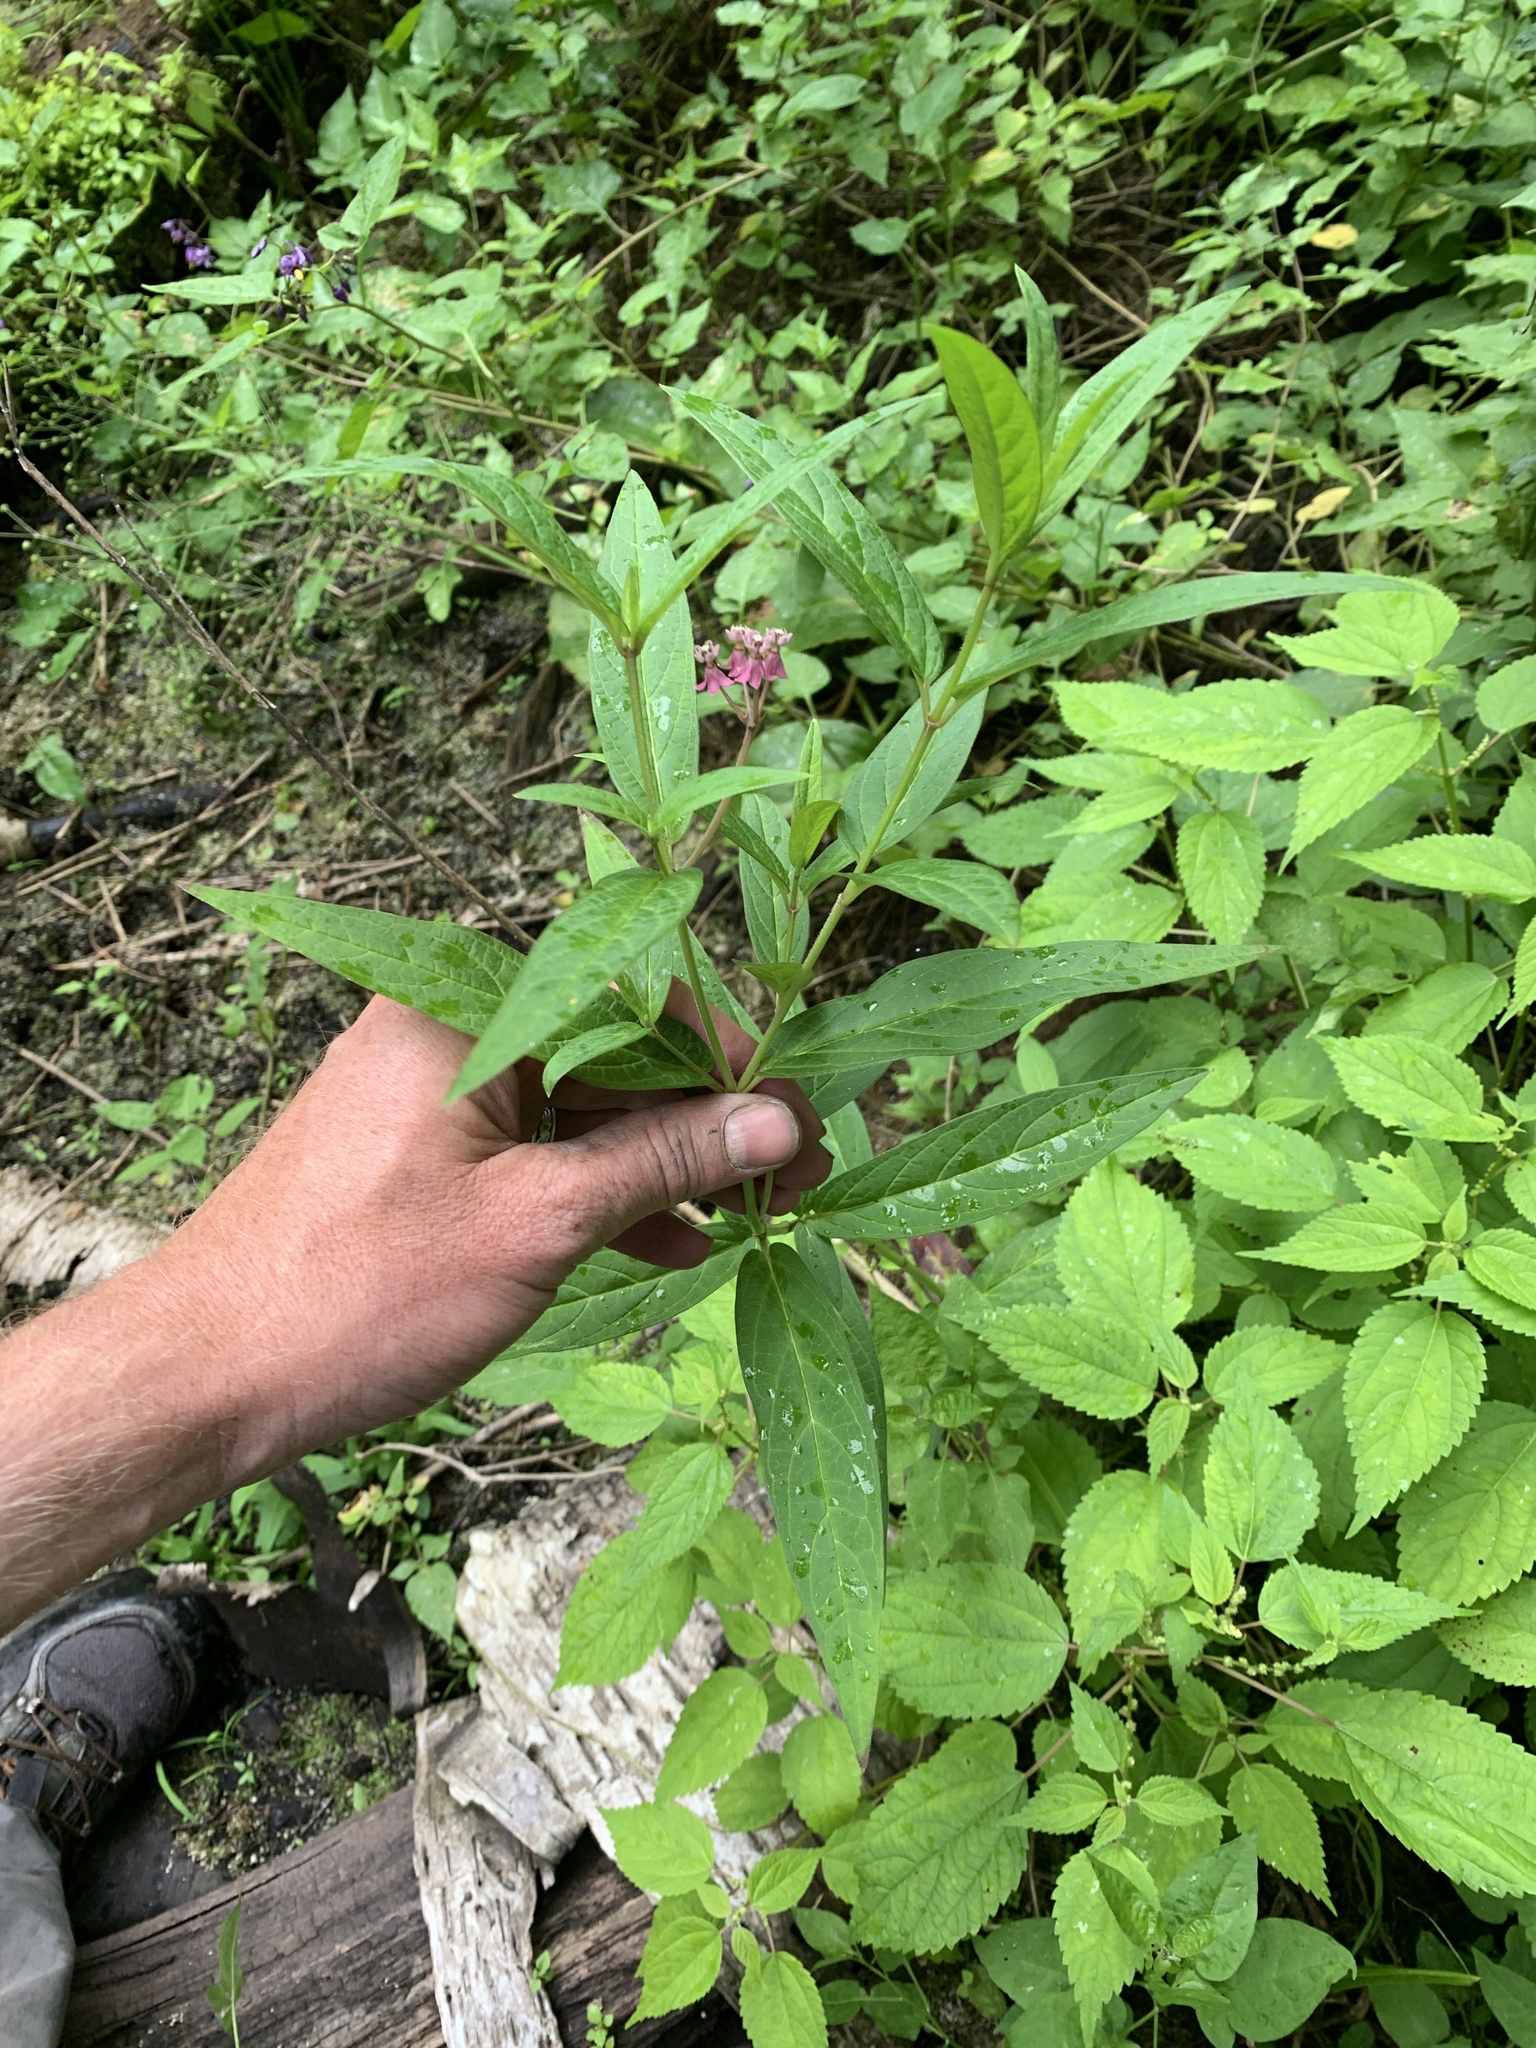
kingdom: Plantae
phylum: Tracheophyta
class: Magnoliopsida
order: Gentianales
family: Apocynaceae
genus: Asclepias
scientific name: Asclepias incarnata
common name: Swamp milkweed
